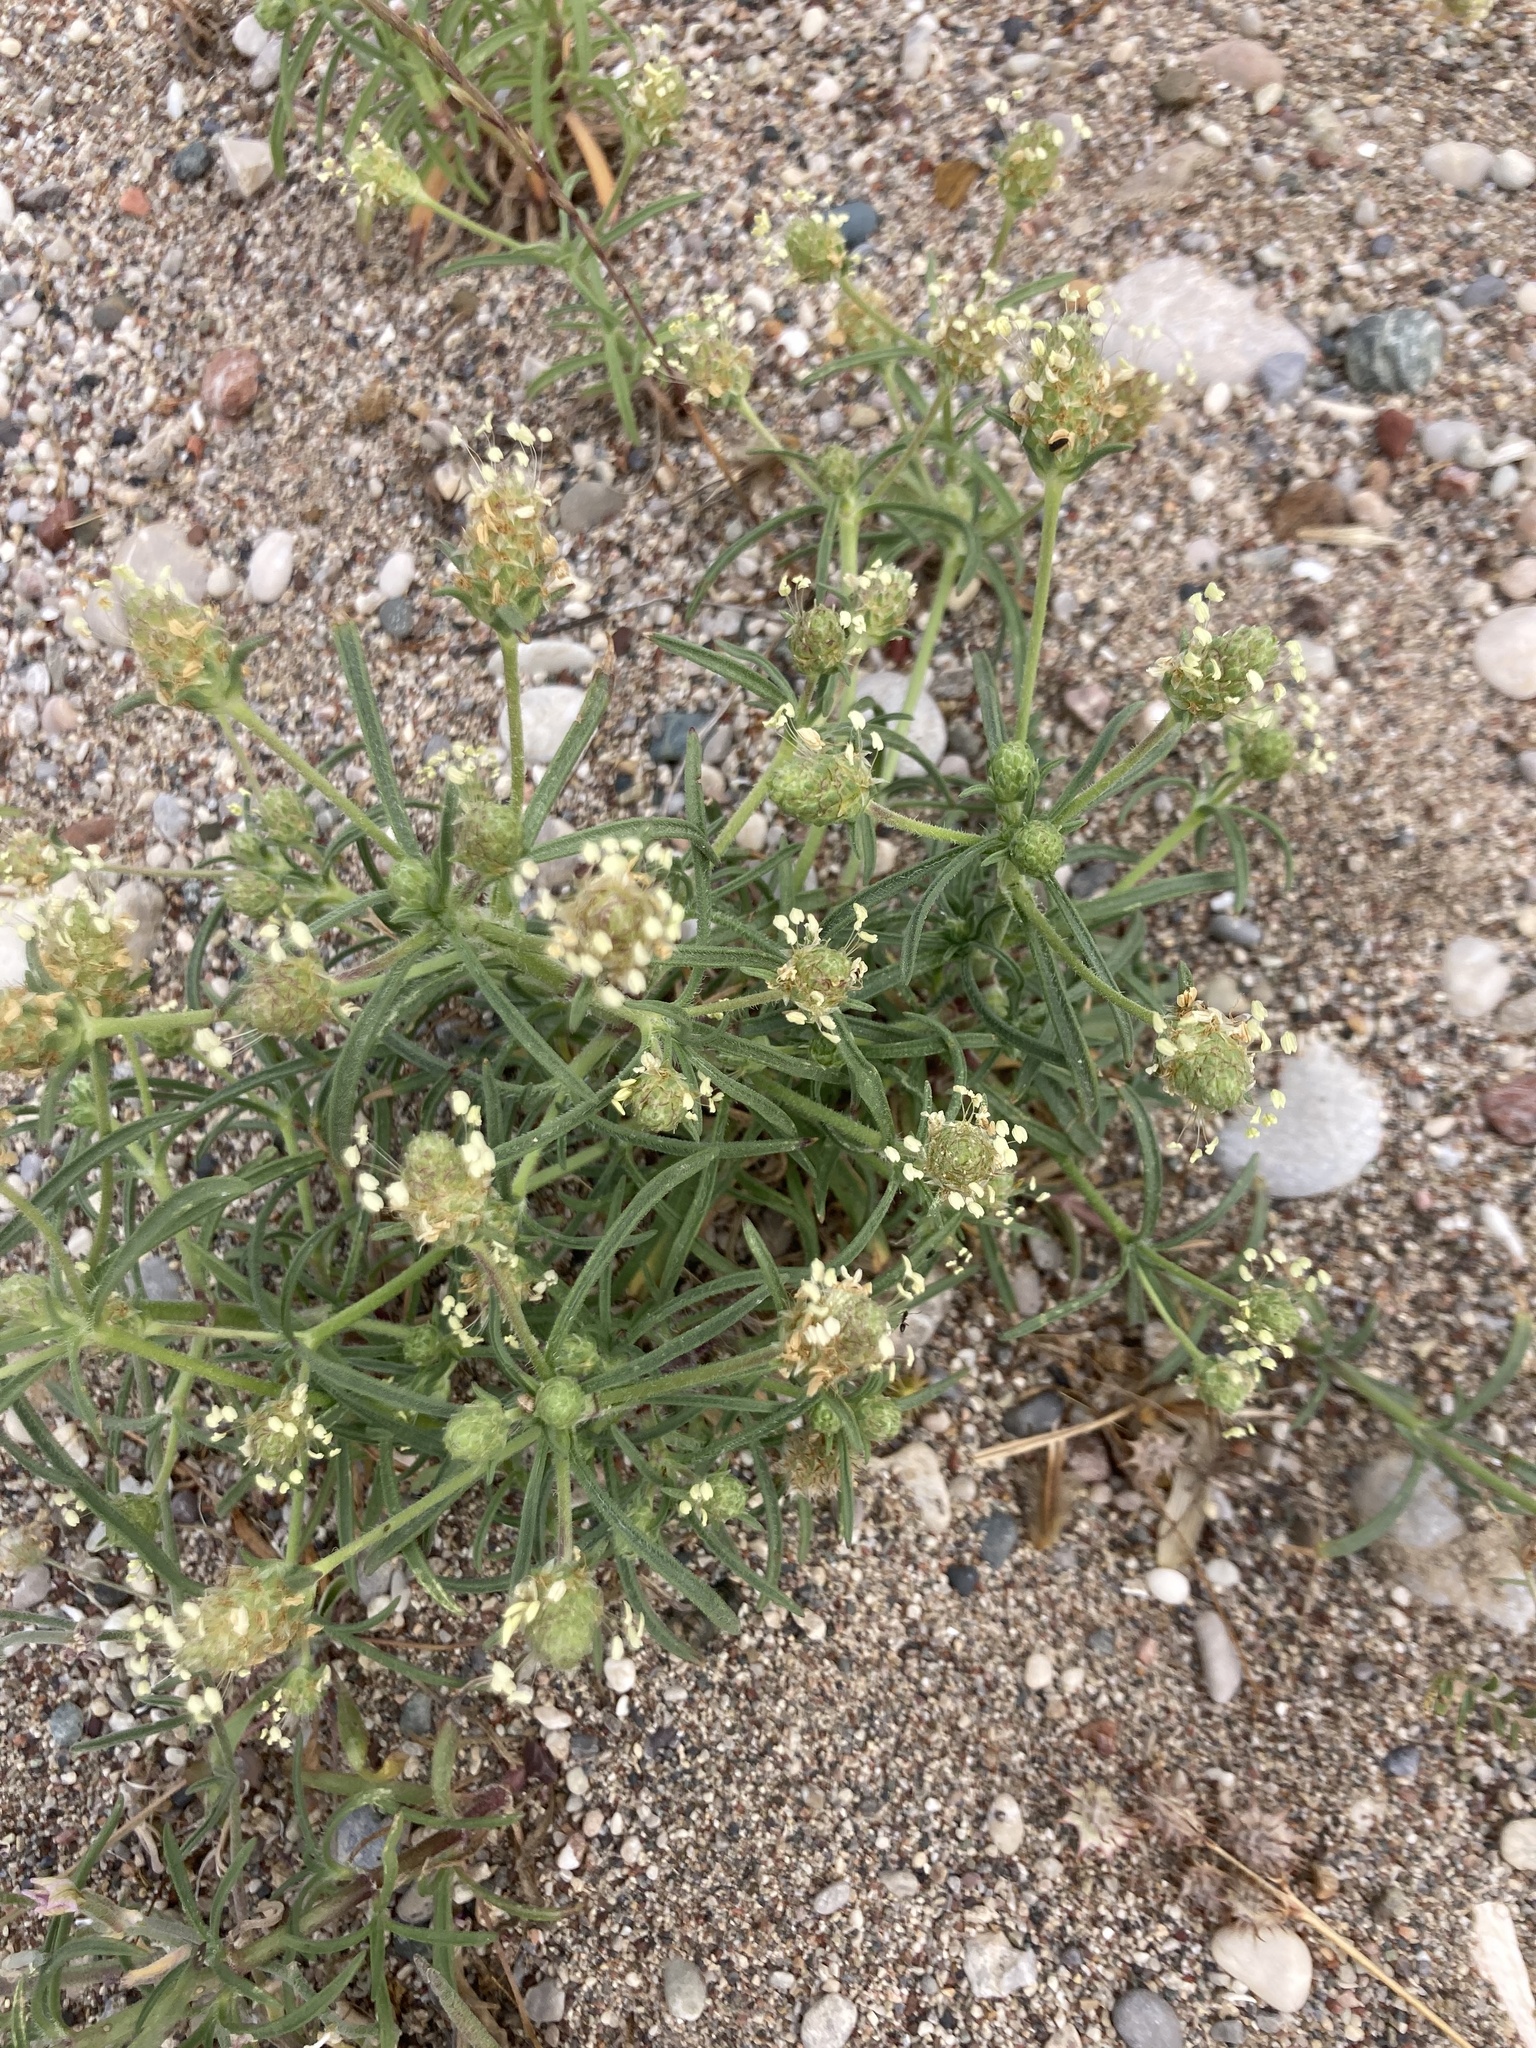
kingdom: Plantae
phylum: Tracheophyta
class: Magnoliopsida
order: Lamiales
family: Plantaginaceae
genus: Plantago
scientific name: Plantago arenaria
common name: Branched plantain
